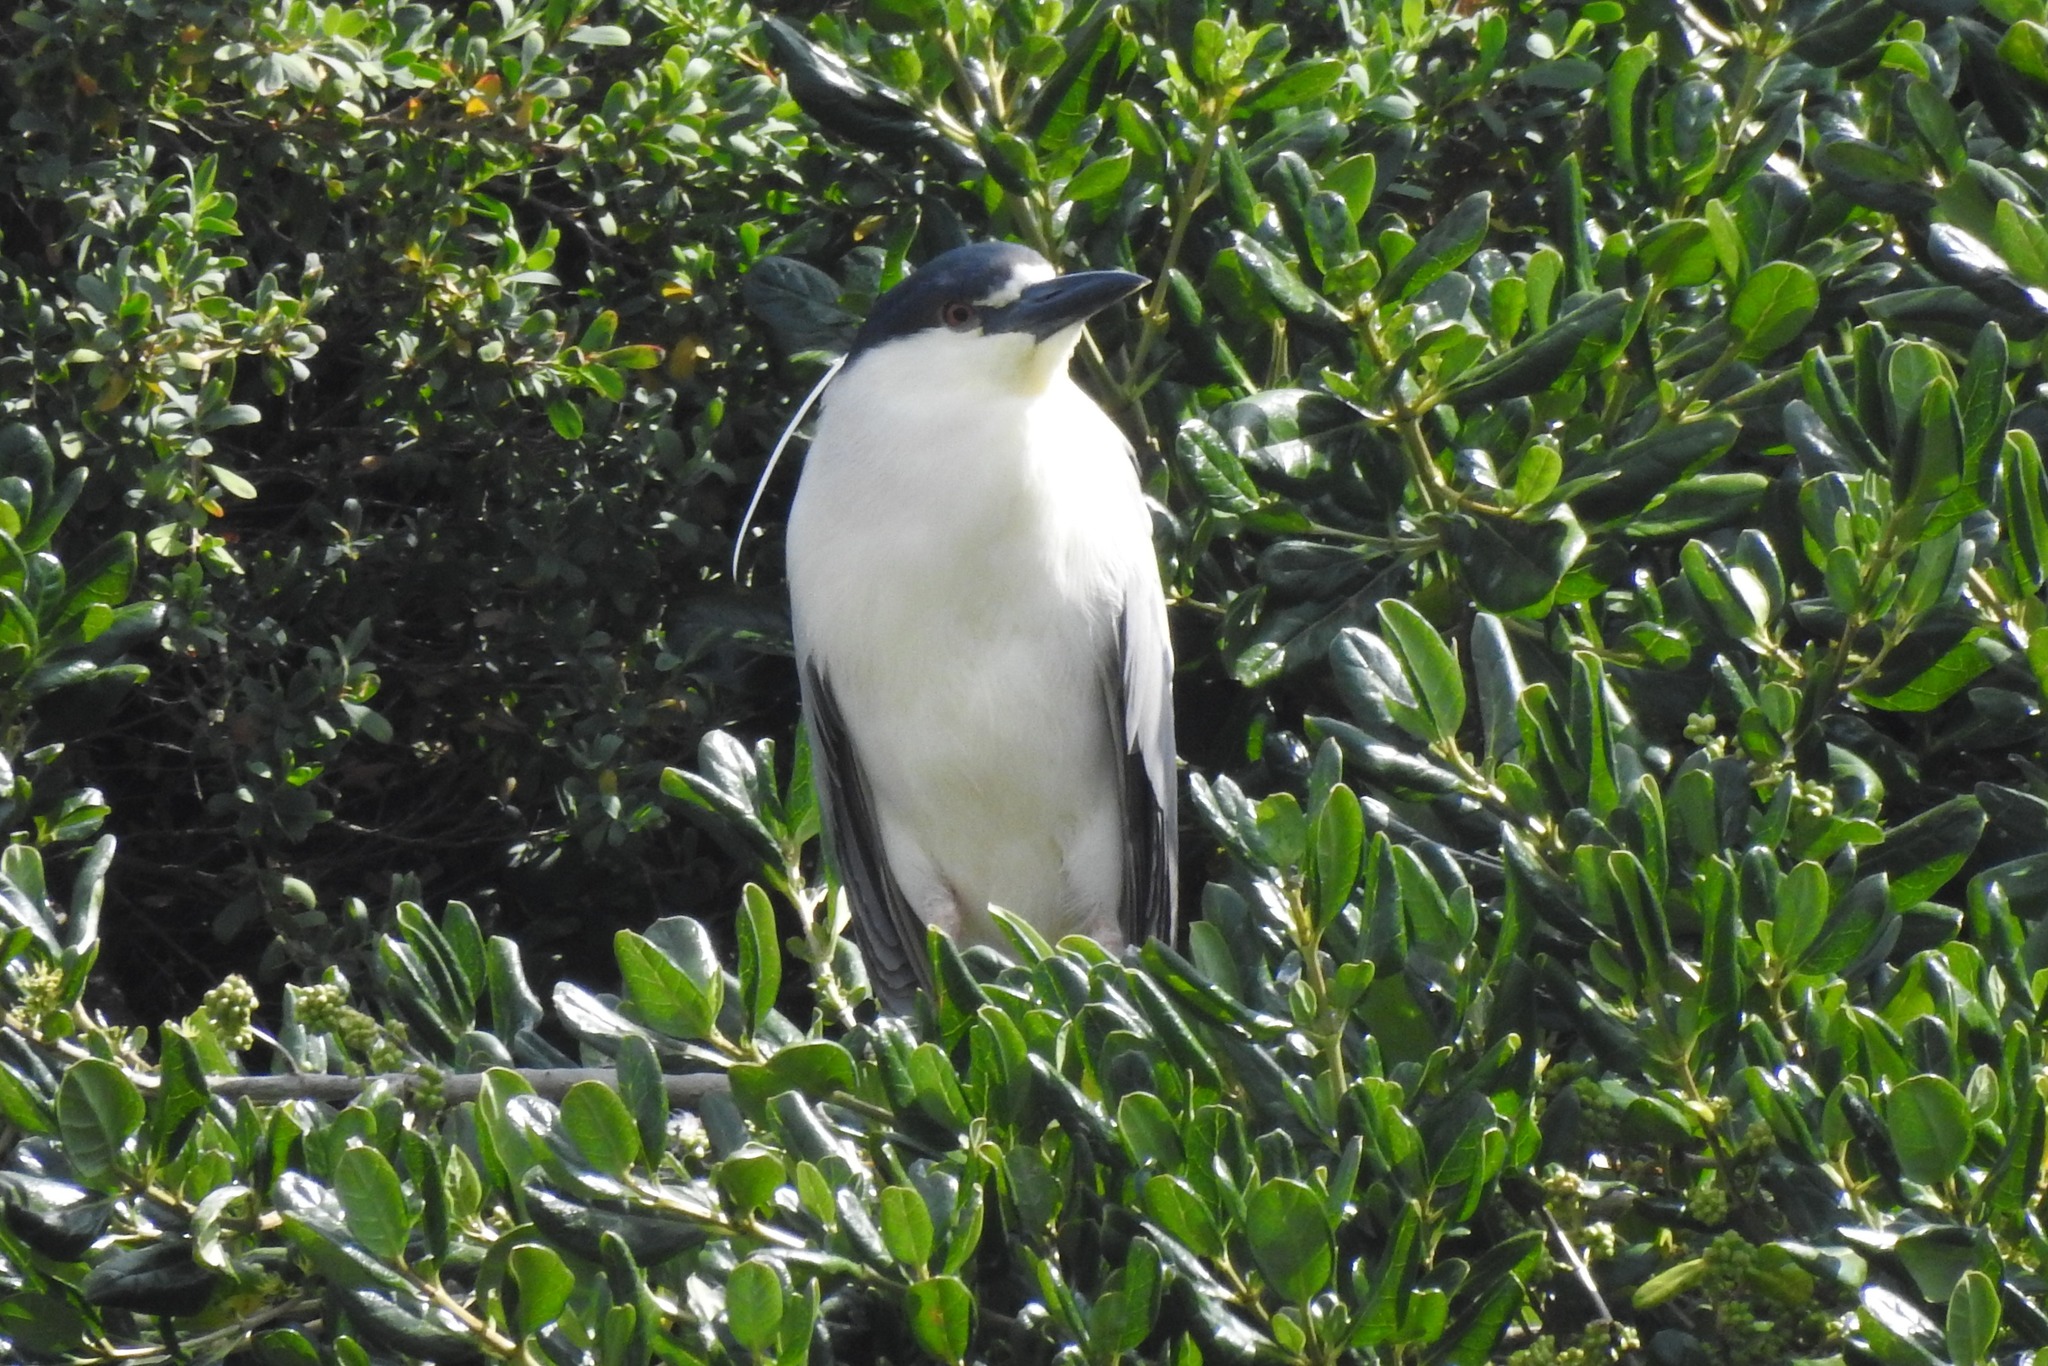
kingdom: Animalia
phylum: Chordata
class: Aves
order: Pelecaniformes
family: Ardeidae
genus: Nycticorax
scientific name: Nycticorax nycticorax
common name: Black-crowned night heron
